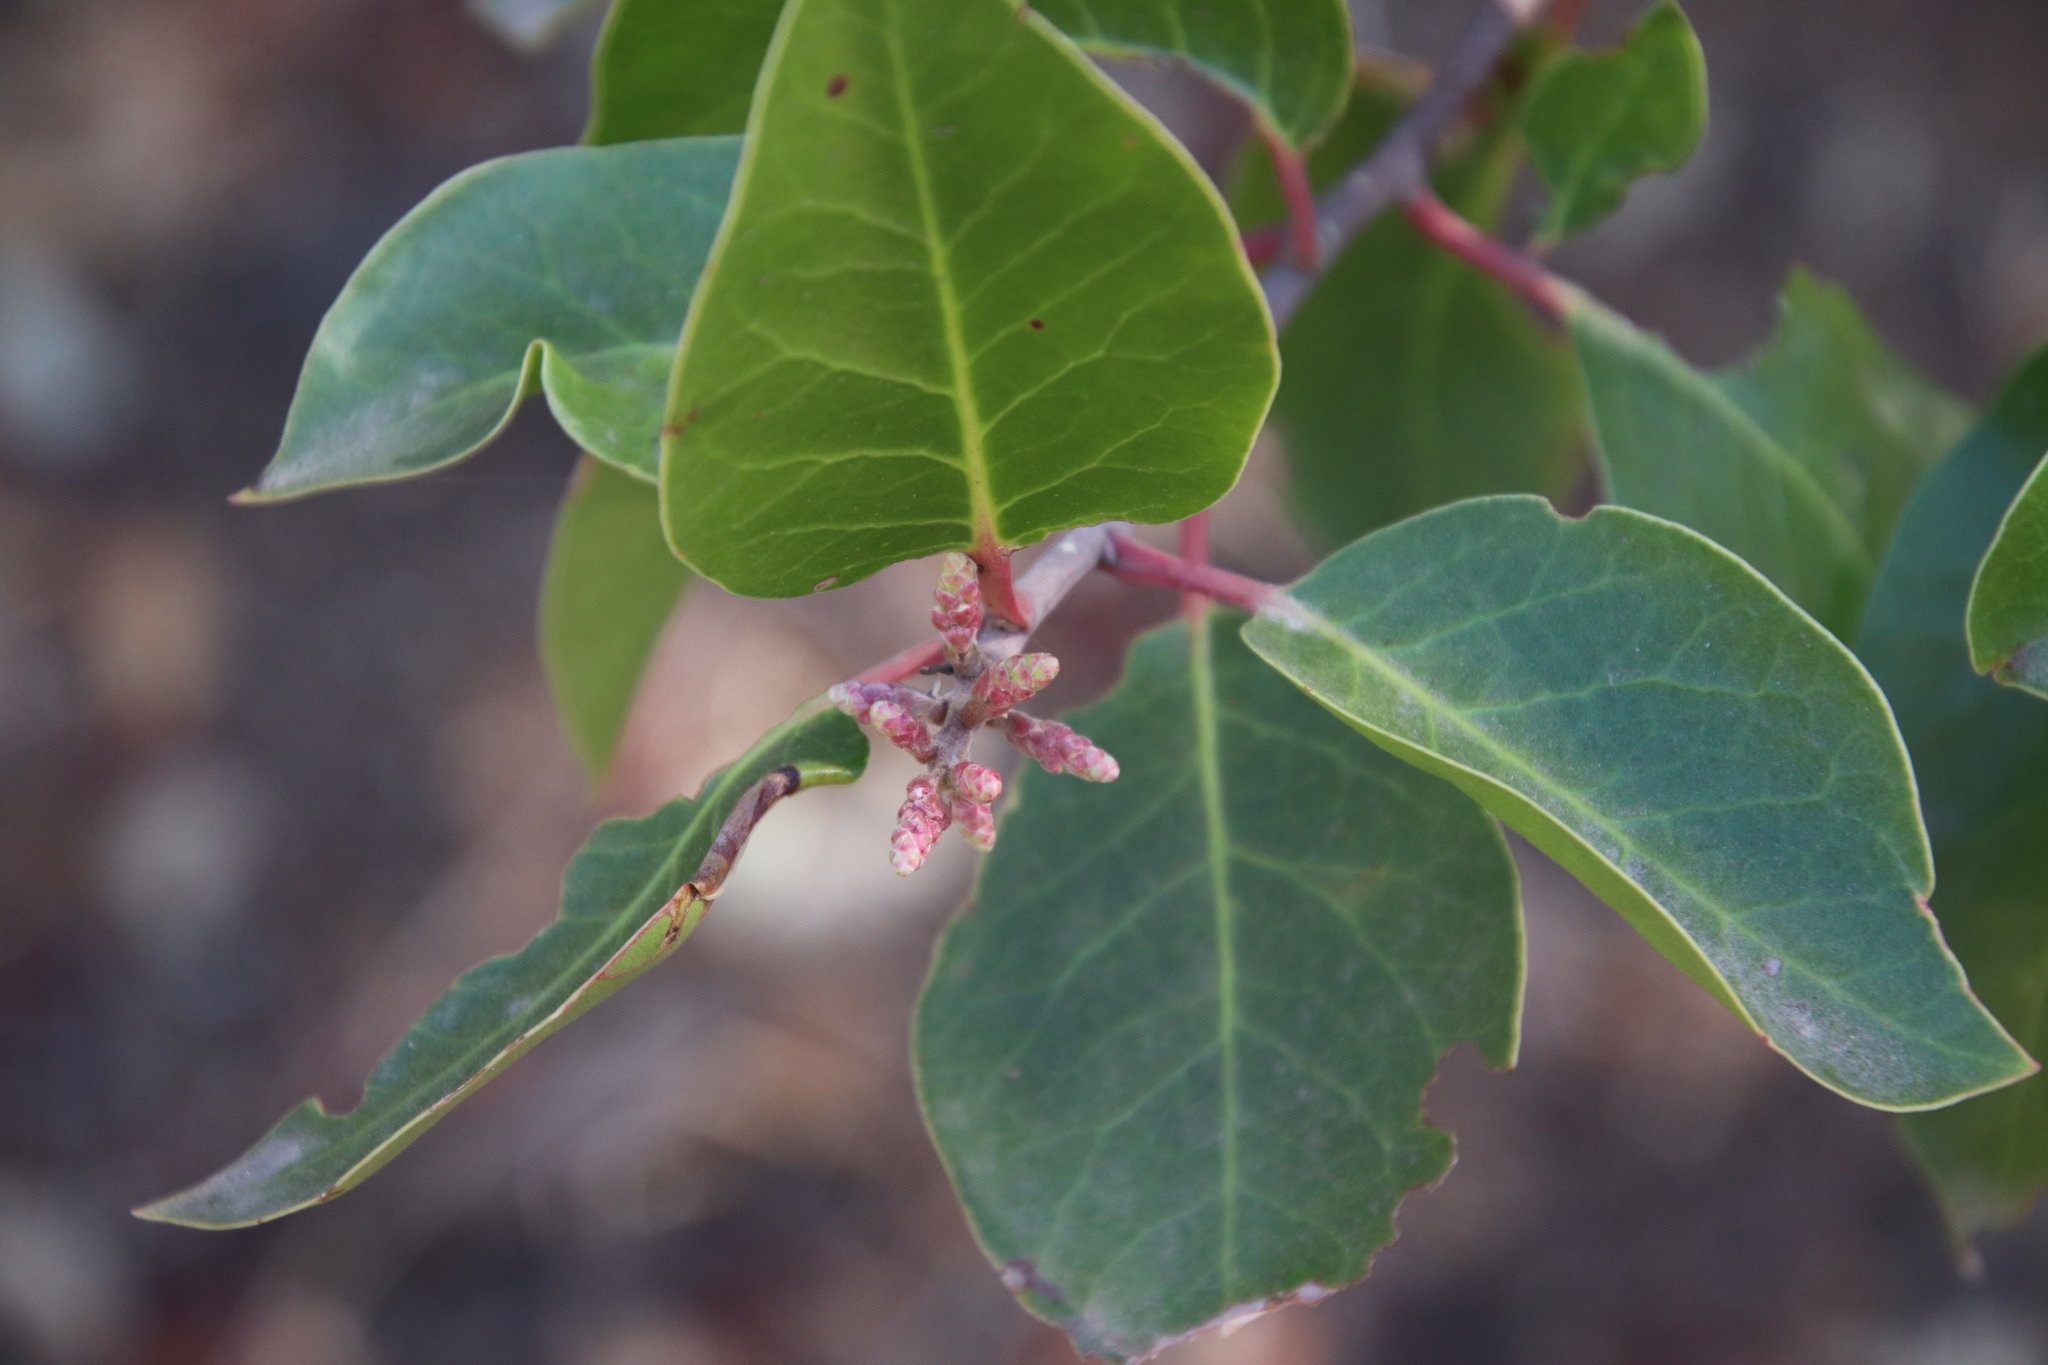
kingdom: Plantae
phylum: Tracheophyta
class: Magnoliopsida
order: Sapindales
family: Anacardiaceae
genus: Rhus
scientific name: Rhus ovata
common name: Sugar sumac
